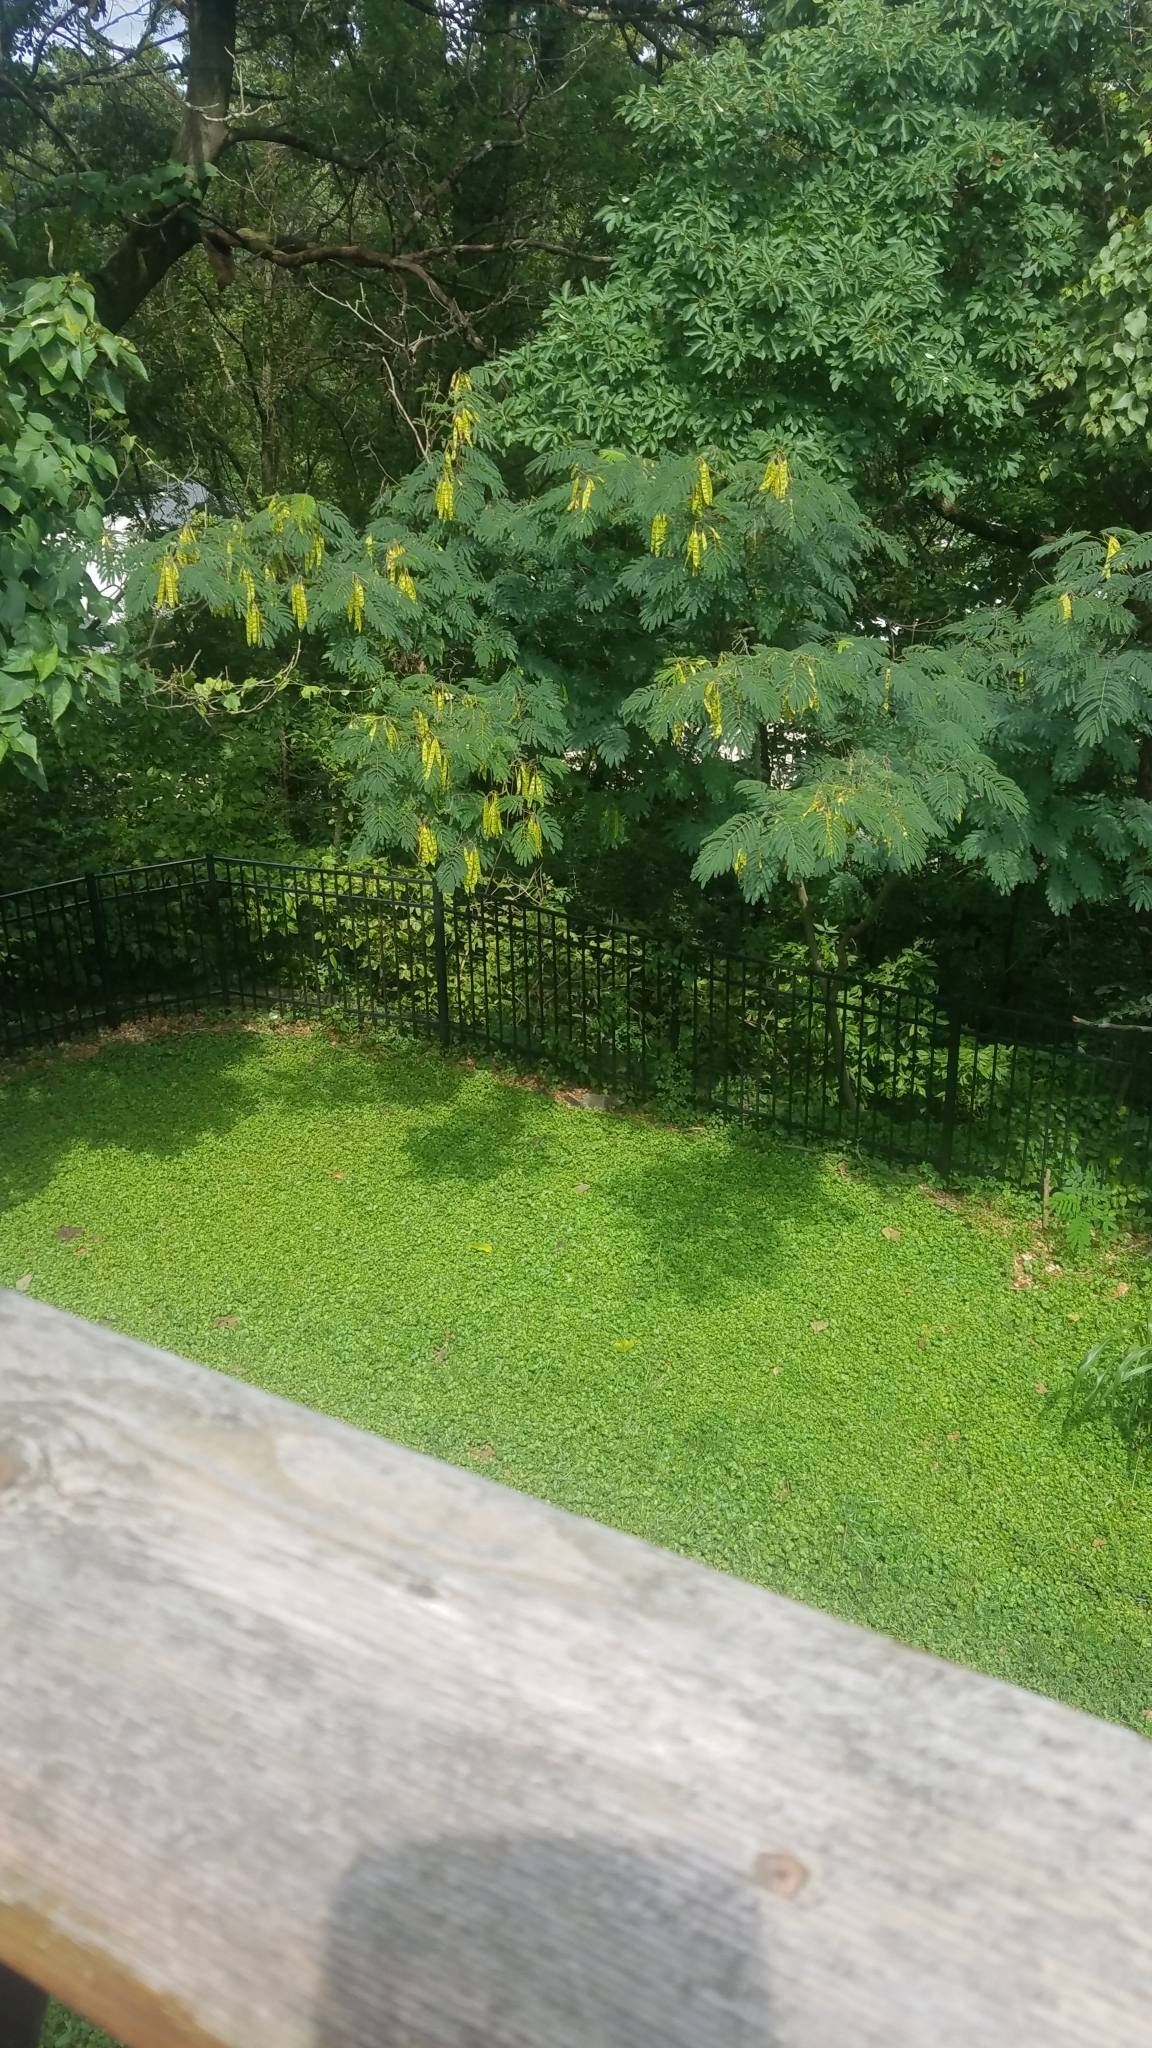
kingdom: Animalia
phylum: Chordata
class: Mammalia
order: Rodentia
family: Sciuridae
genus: Marmota
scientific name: Marmota monax
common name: Groundhog
